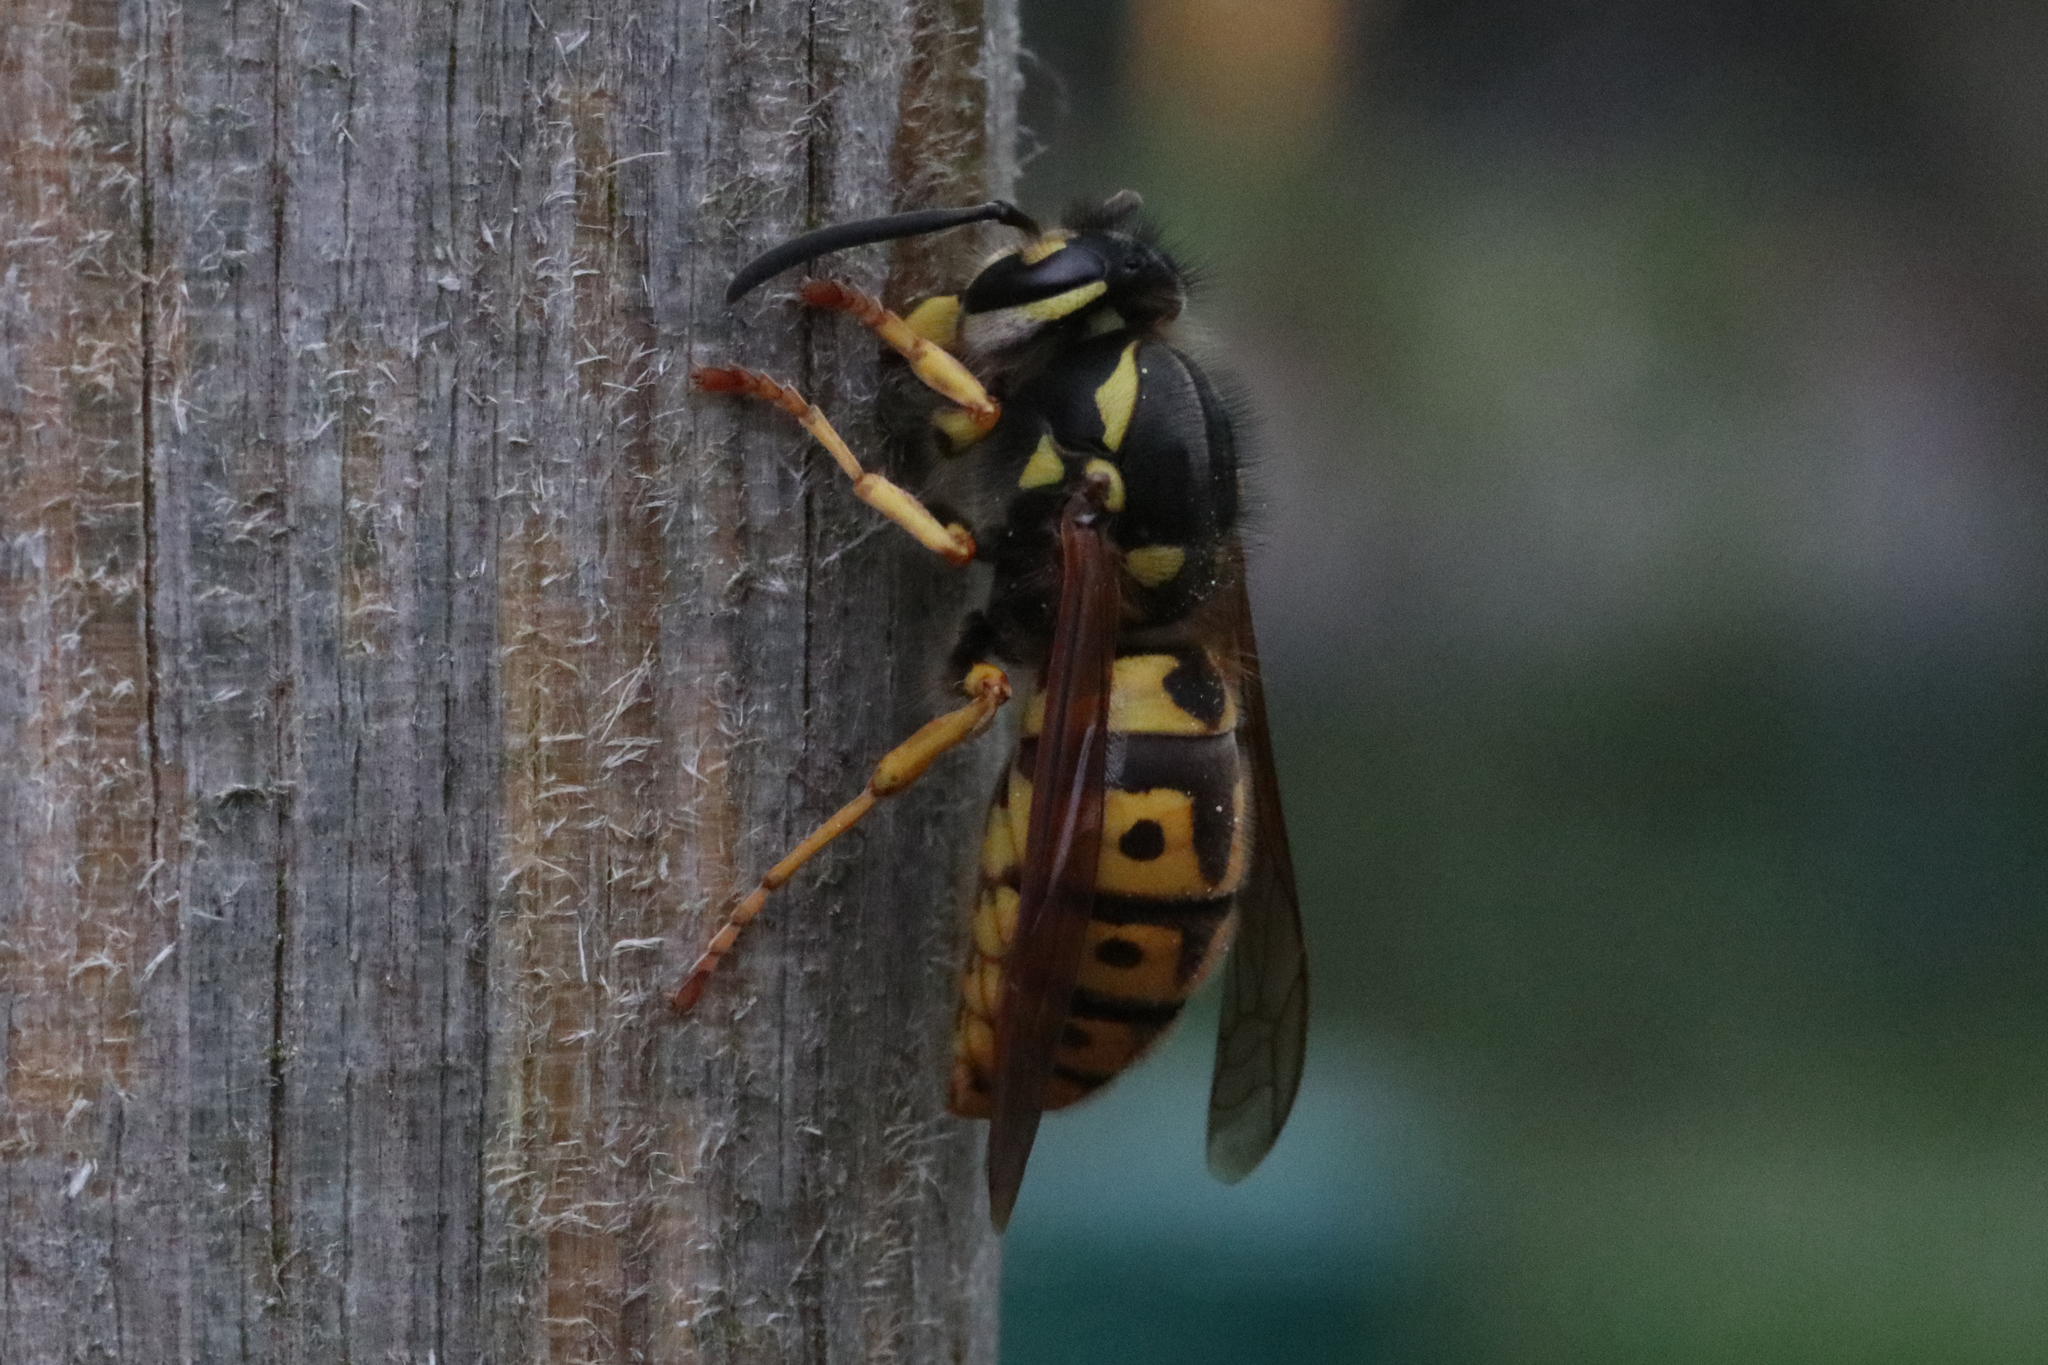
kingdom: Animalia
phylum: Arthropoda
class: Insecta
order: Hymenoptera
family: Vespidae
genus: Vespula
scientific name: Vespula germanica
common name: German wasp
